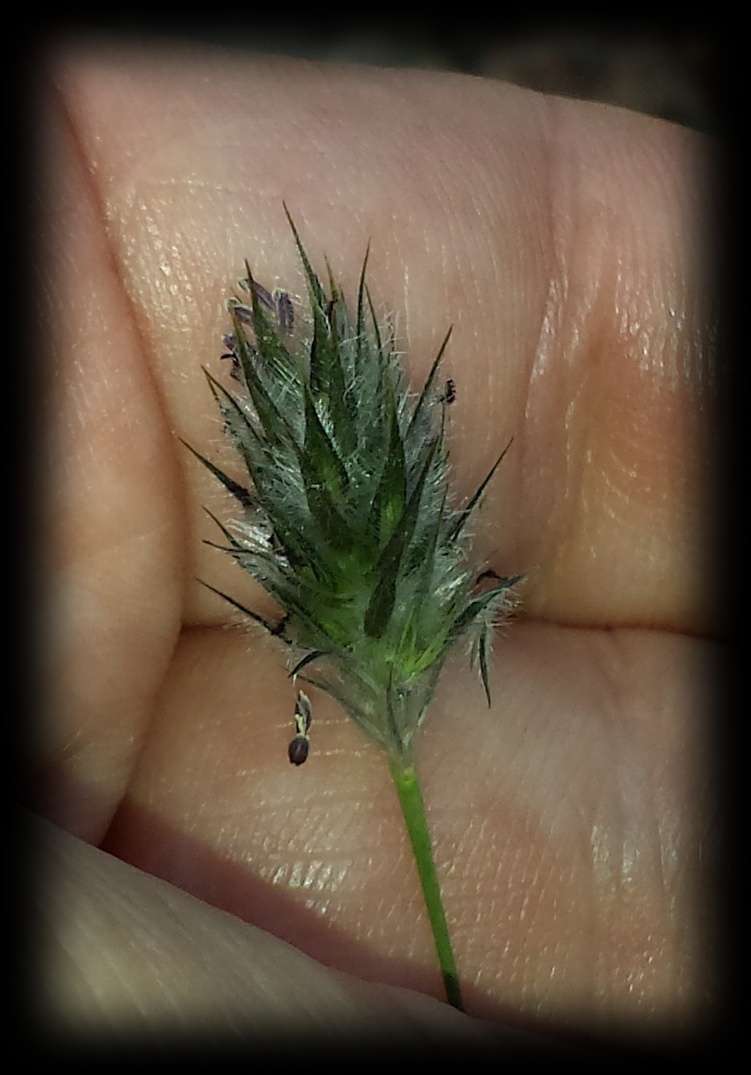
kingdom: Plantae
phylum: Tracheophyta
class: Liliopsida
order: Poales
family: Poaceae
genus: Neurachne
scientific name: Neurachne alopecuroidea
